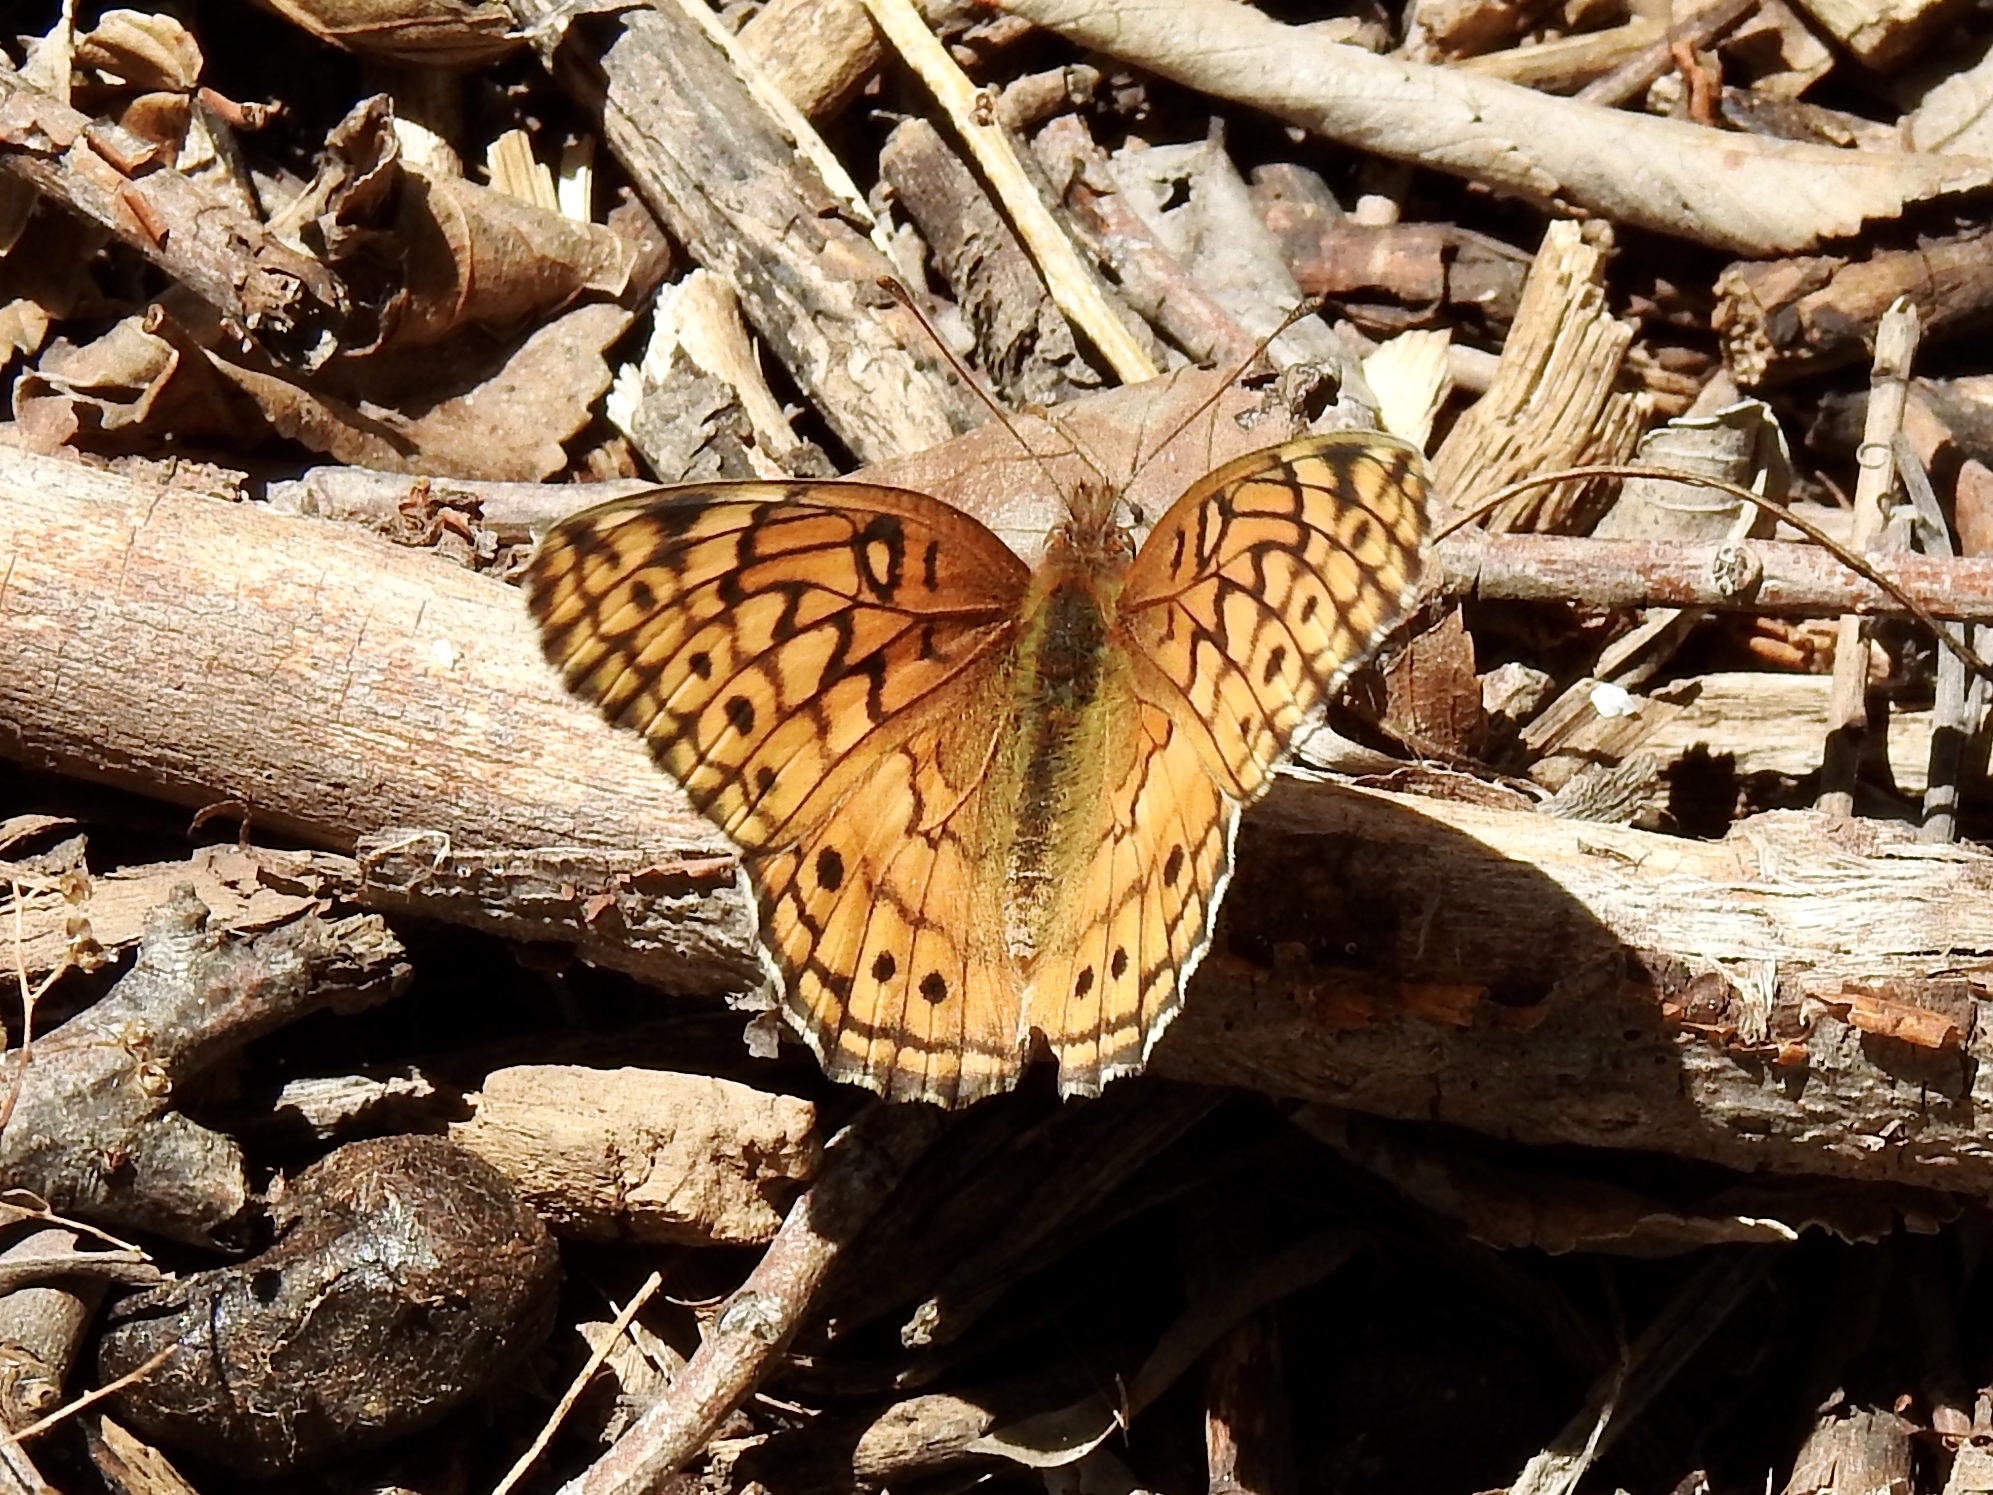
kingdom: Animalia
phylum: Arthropoda
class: Insecta
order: Lepidoptera
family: Nymphalidae
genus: Euptoieta
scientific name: Euptoieta claudia
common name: Variegated fritillary
